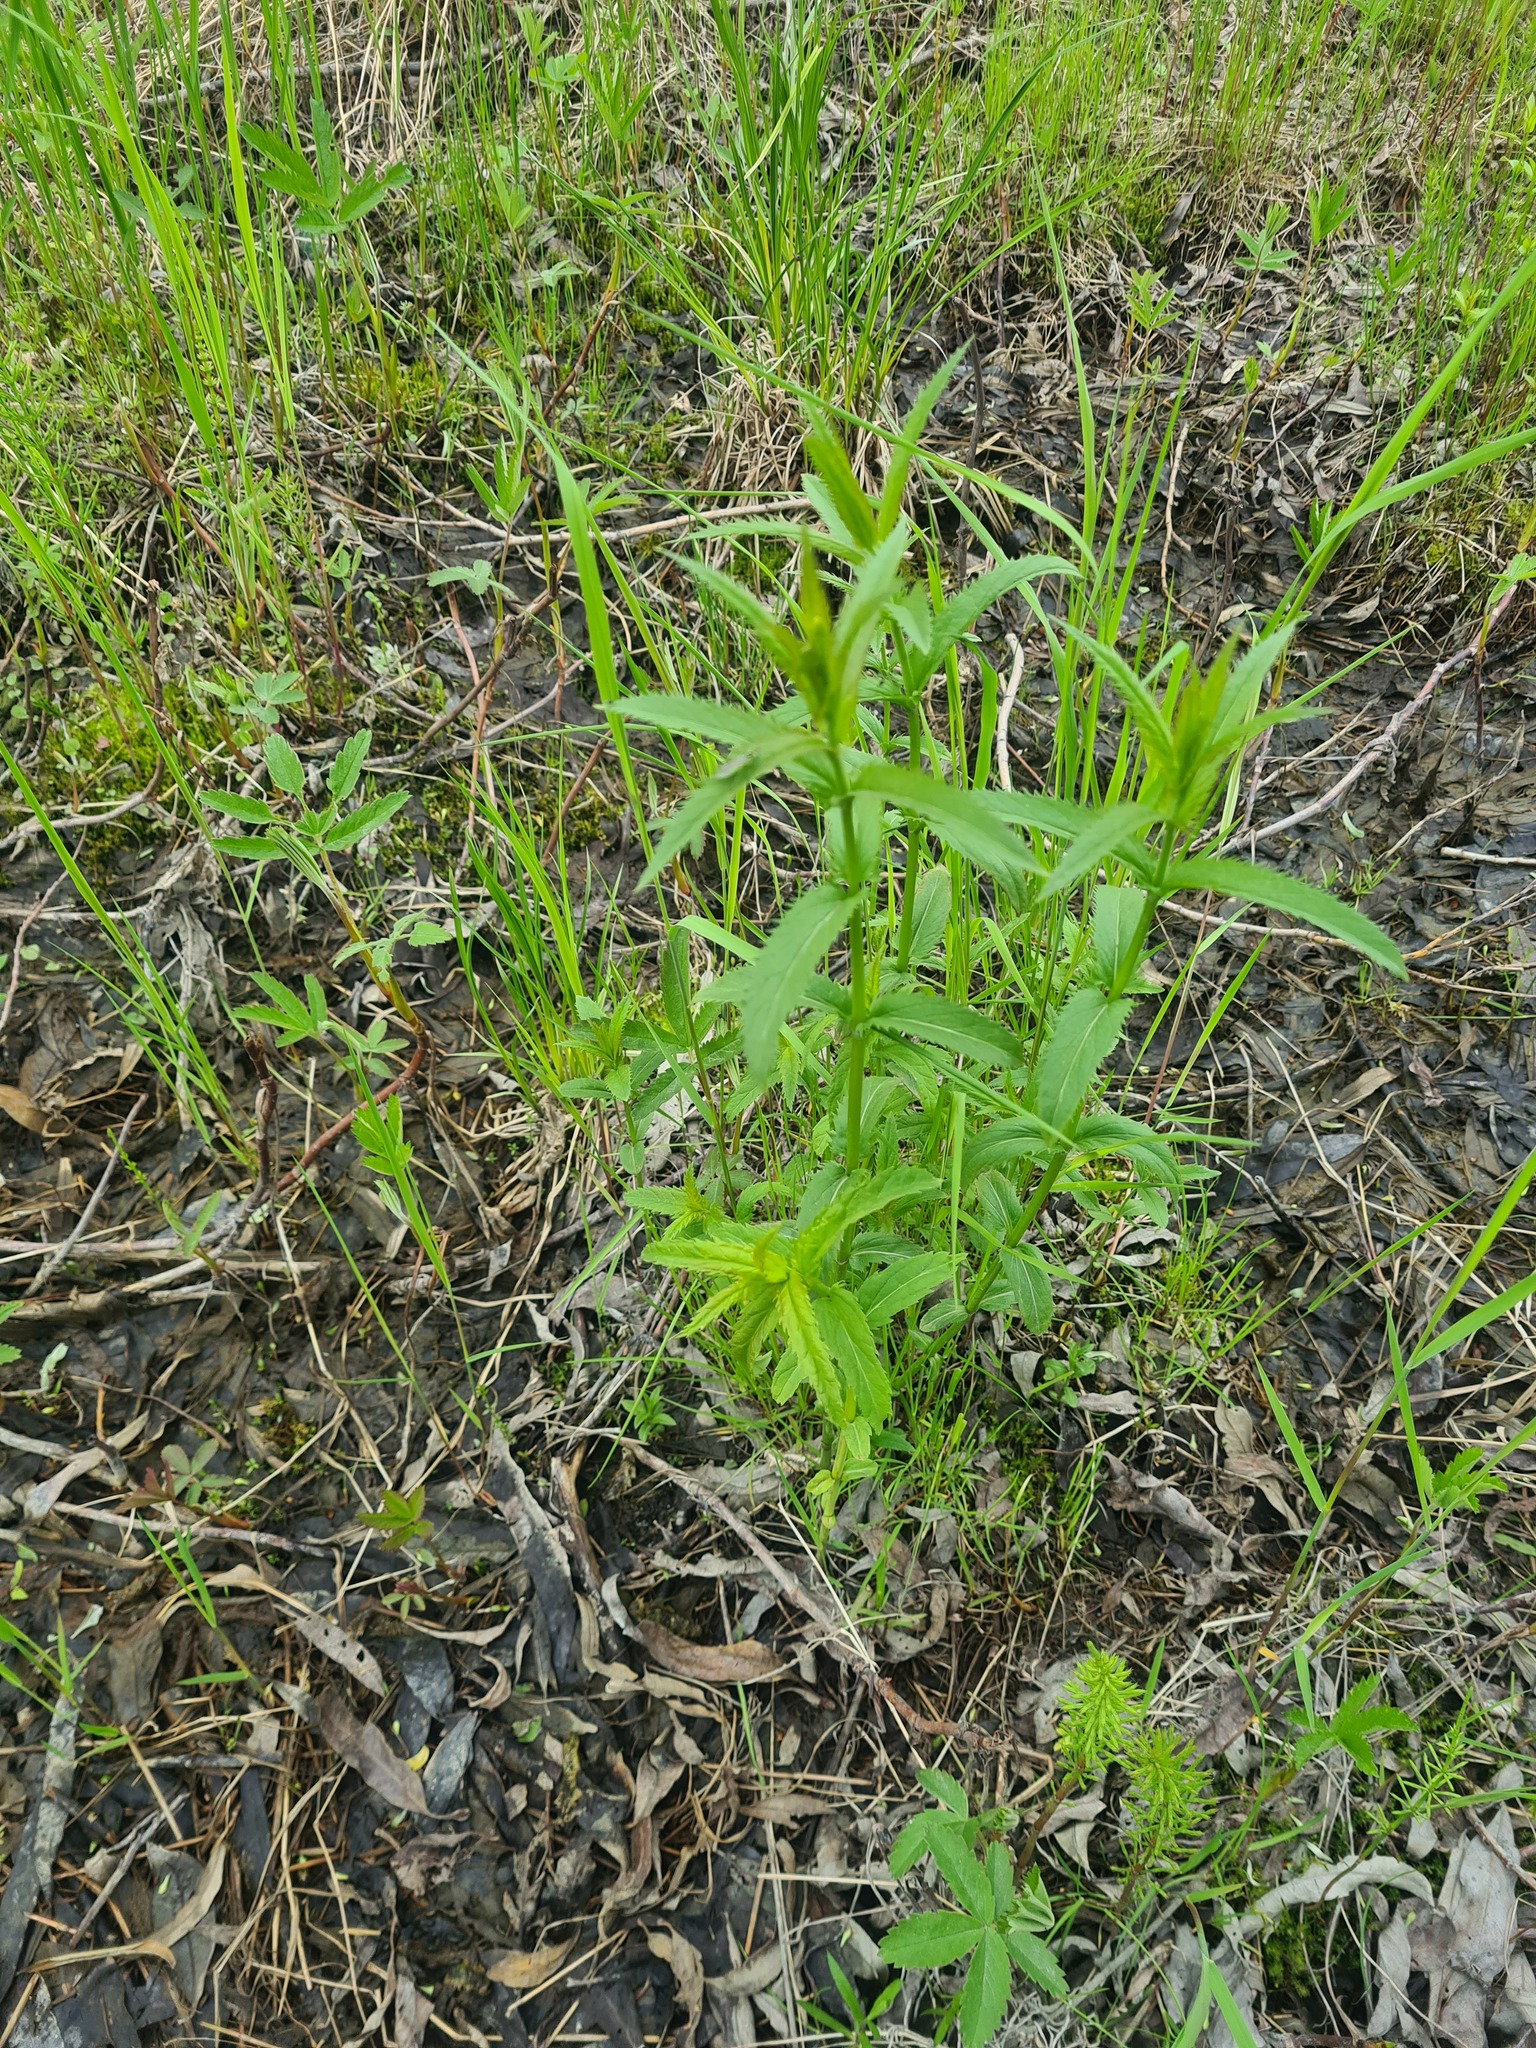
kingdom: Plantae
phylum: Tracheophyta
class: Magnoliopsida
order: Lamiales
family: Plantaginaceae
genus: Veronica
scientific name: Veronica longifolia
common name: Garden speedwell
